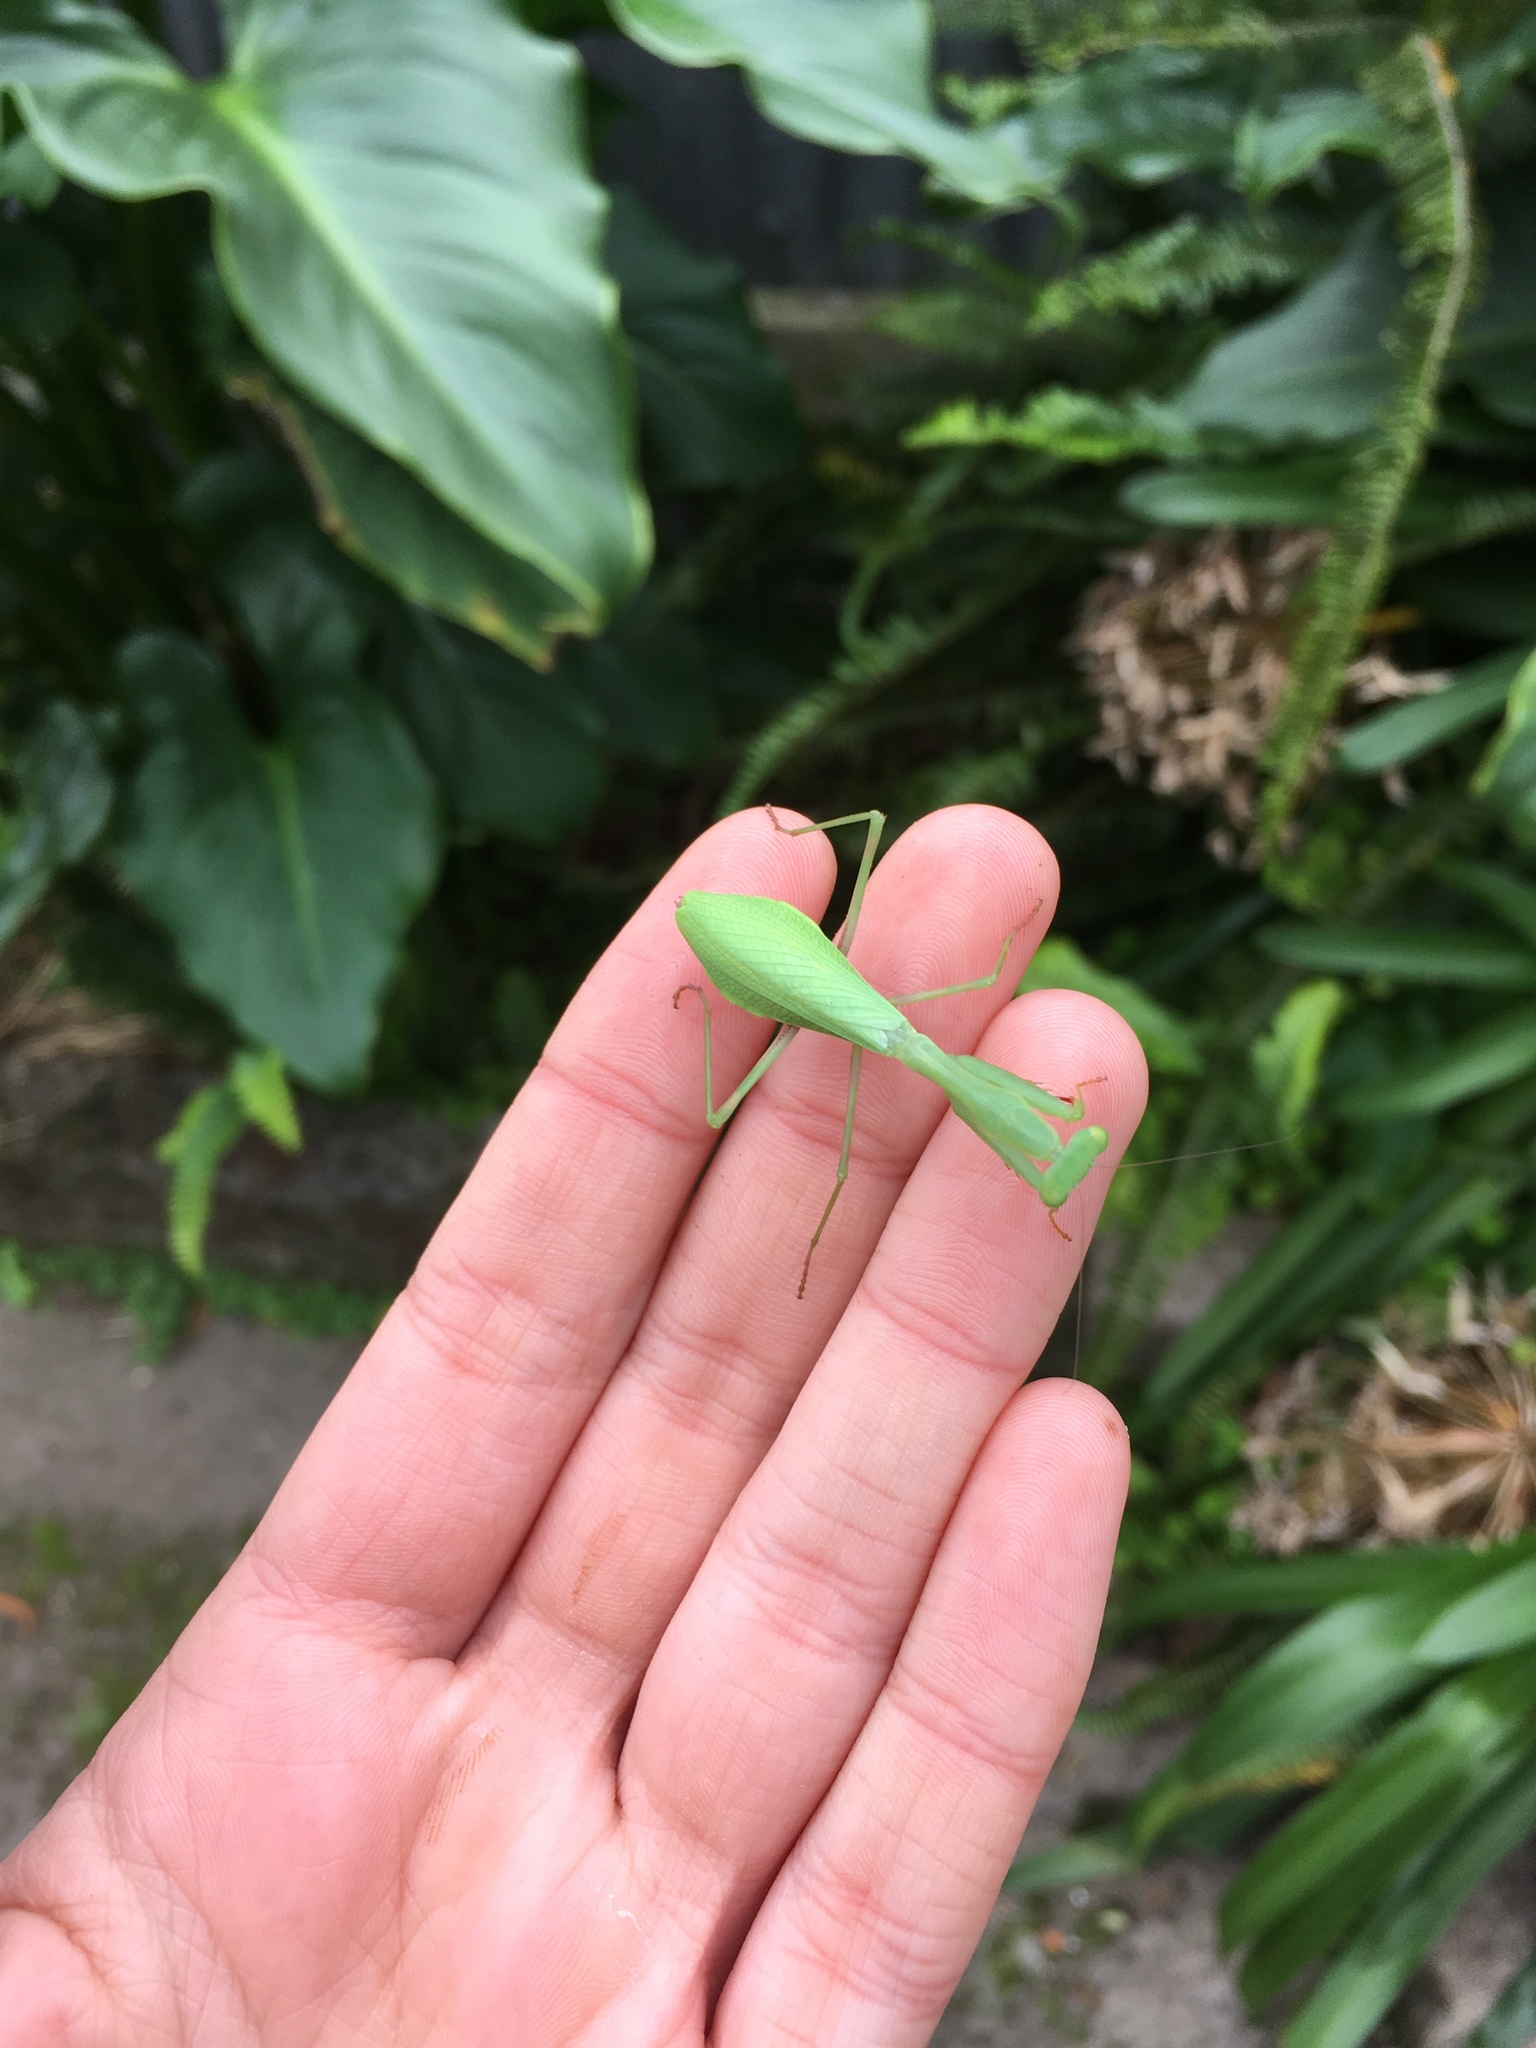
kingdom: Animalia
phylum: Arthropoda
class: Insecta
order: Mantodea
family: Miomantidae
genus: Miomantis
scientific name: Miomantis caffra
